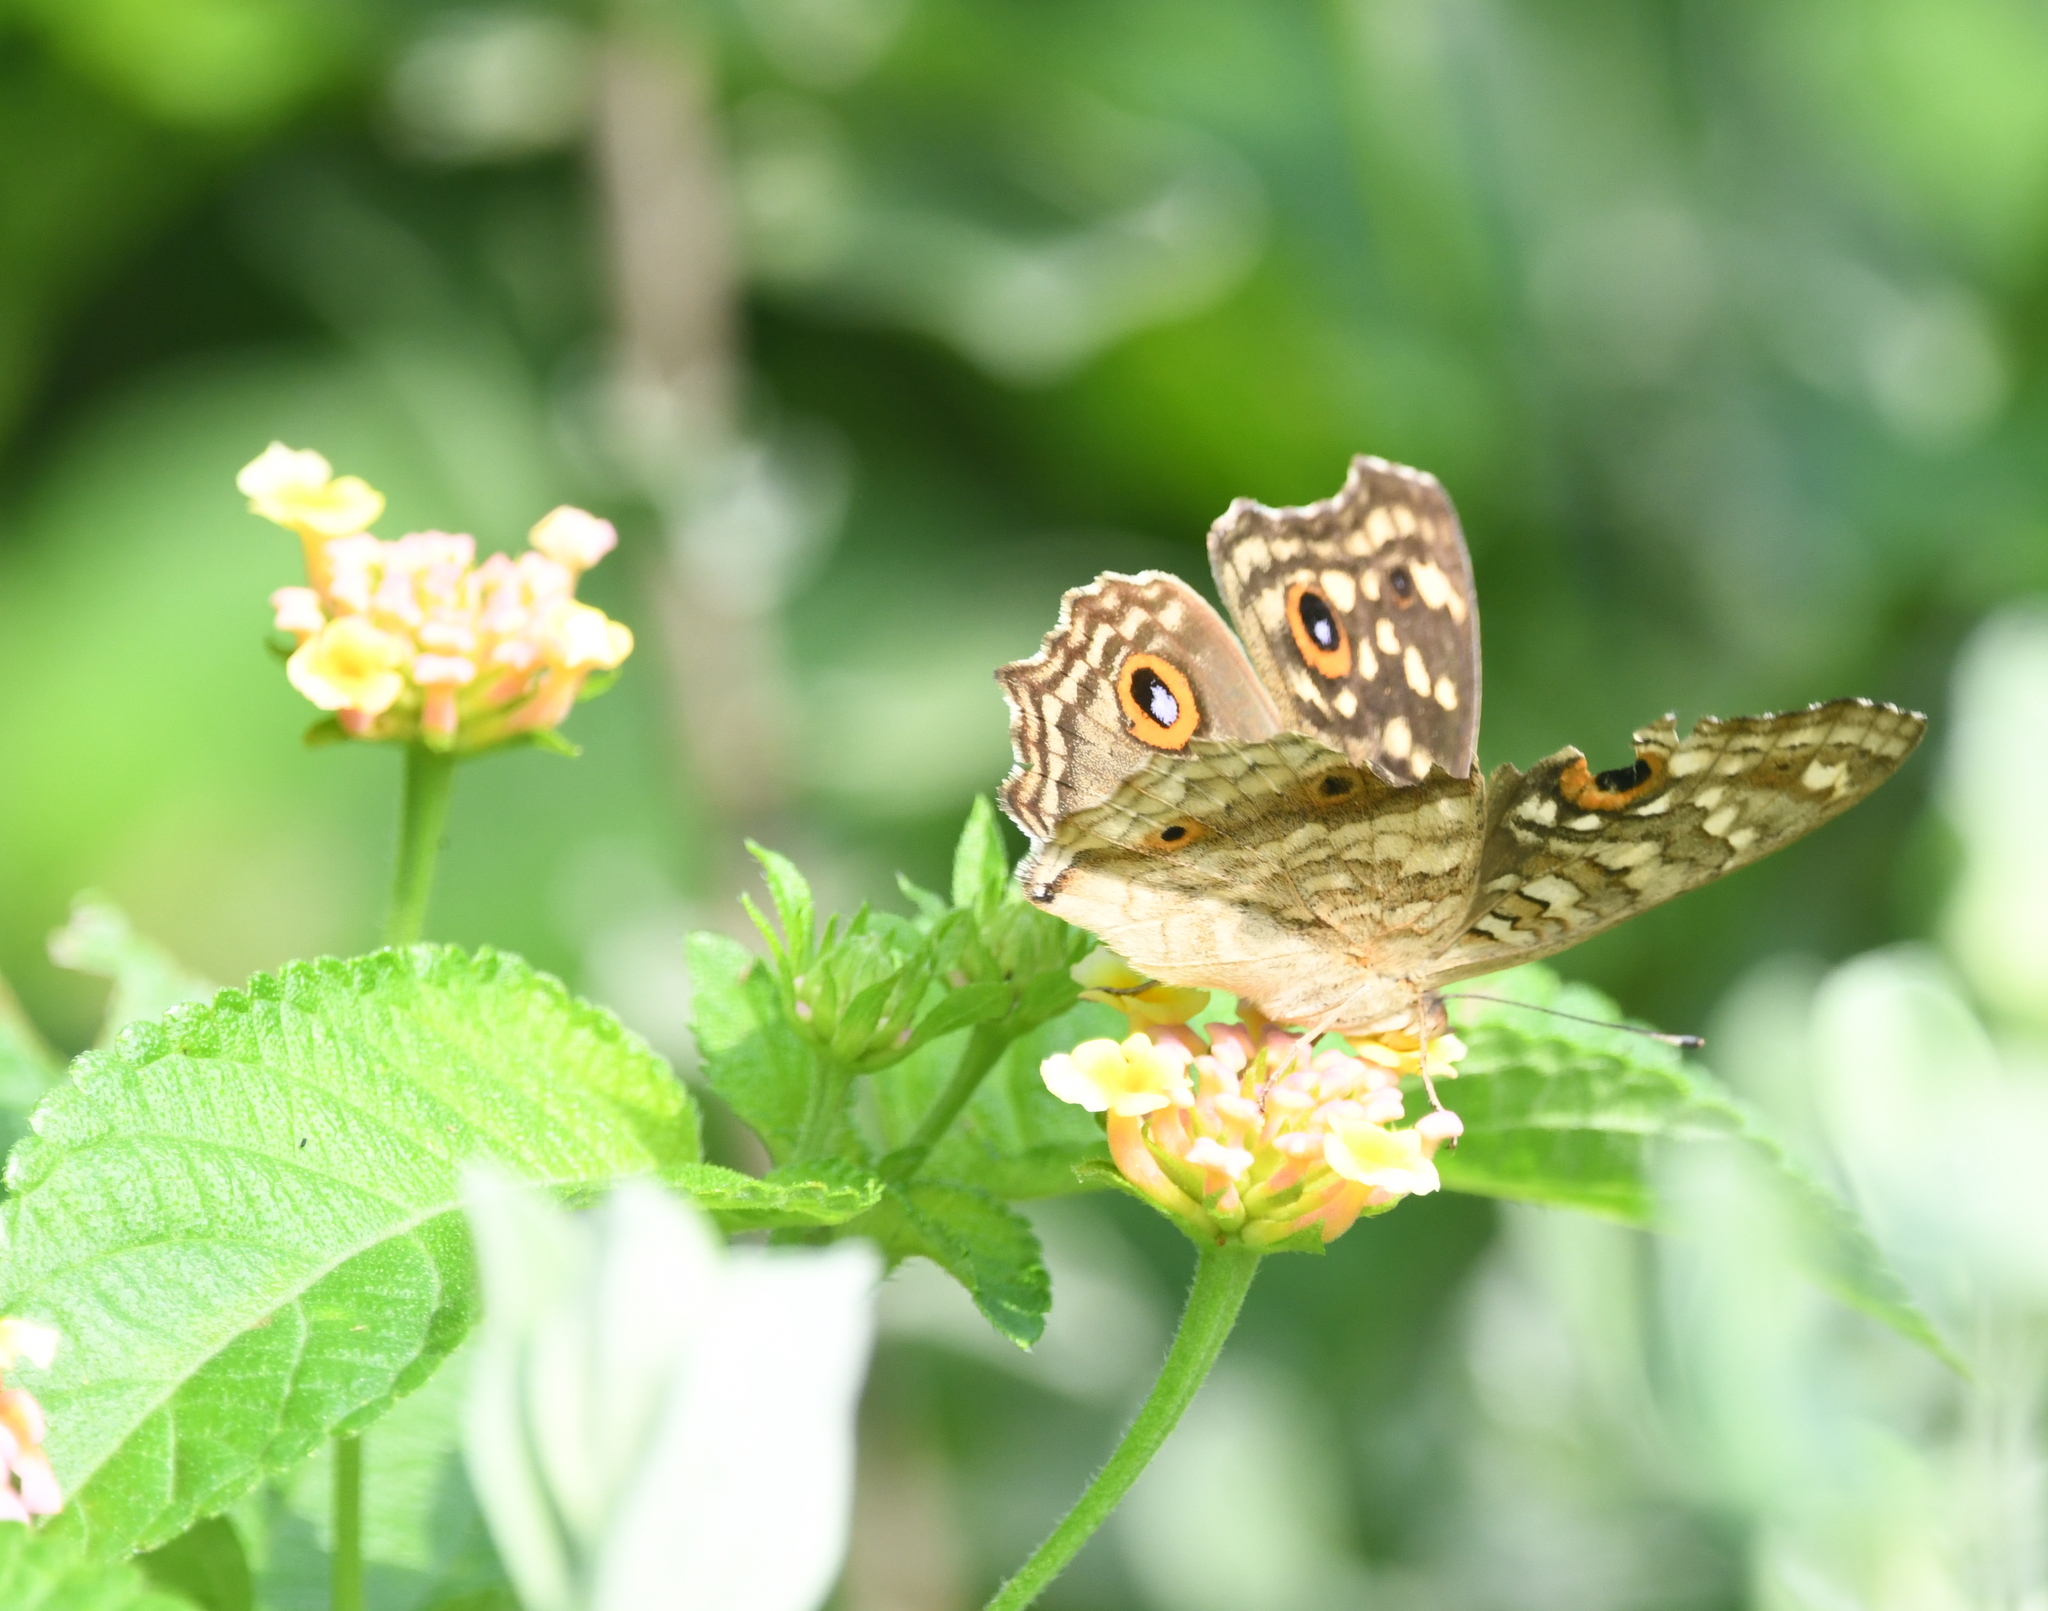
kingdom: Animalia
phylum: Arthropoda
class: Insecta
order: Lepidoptera
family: Nymphalidae
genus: Junonia
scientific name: Junonia lemonias
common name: Lemon pansy
